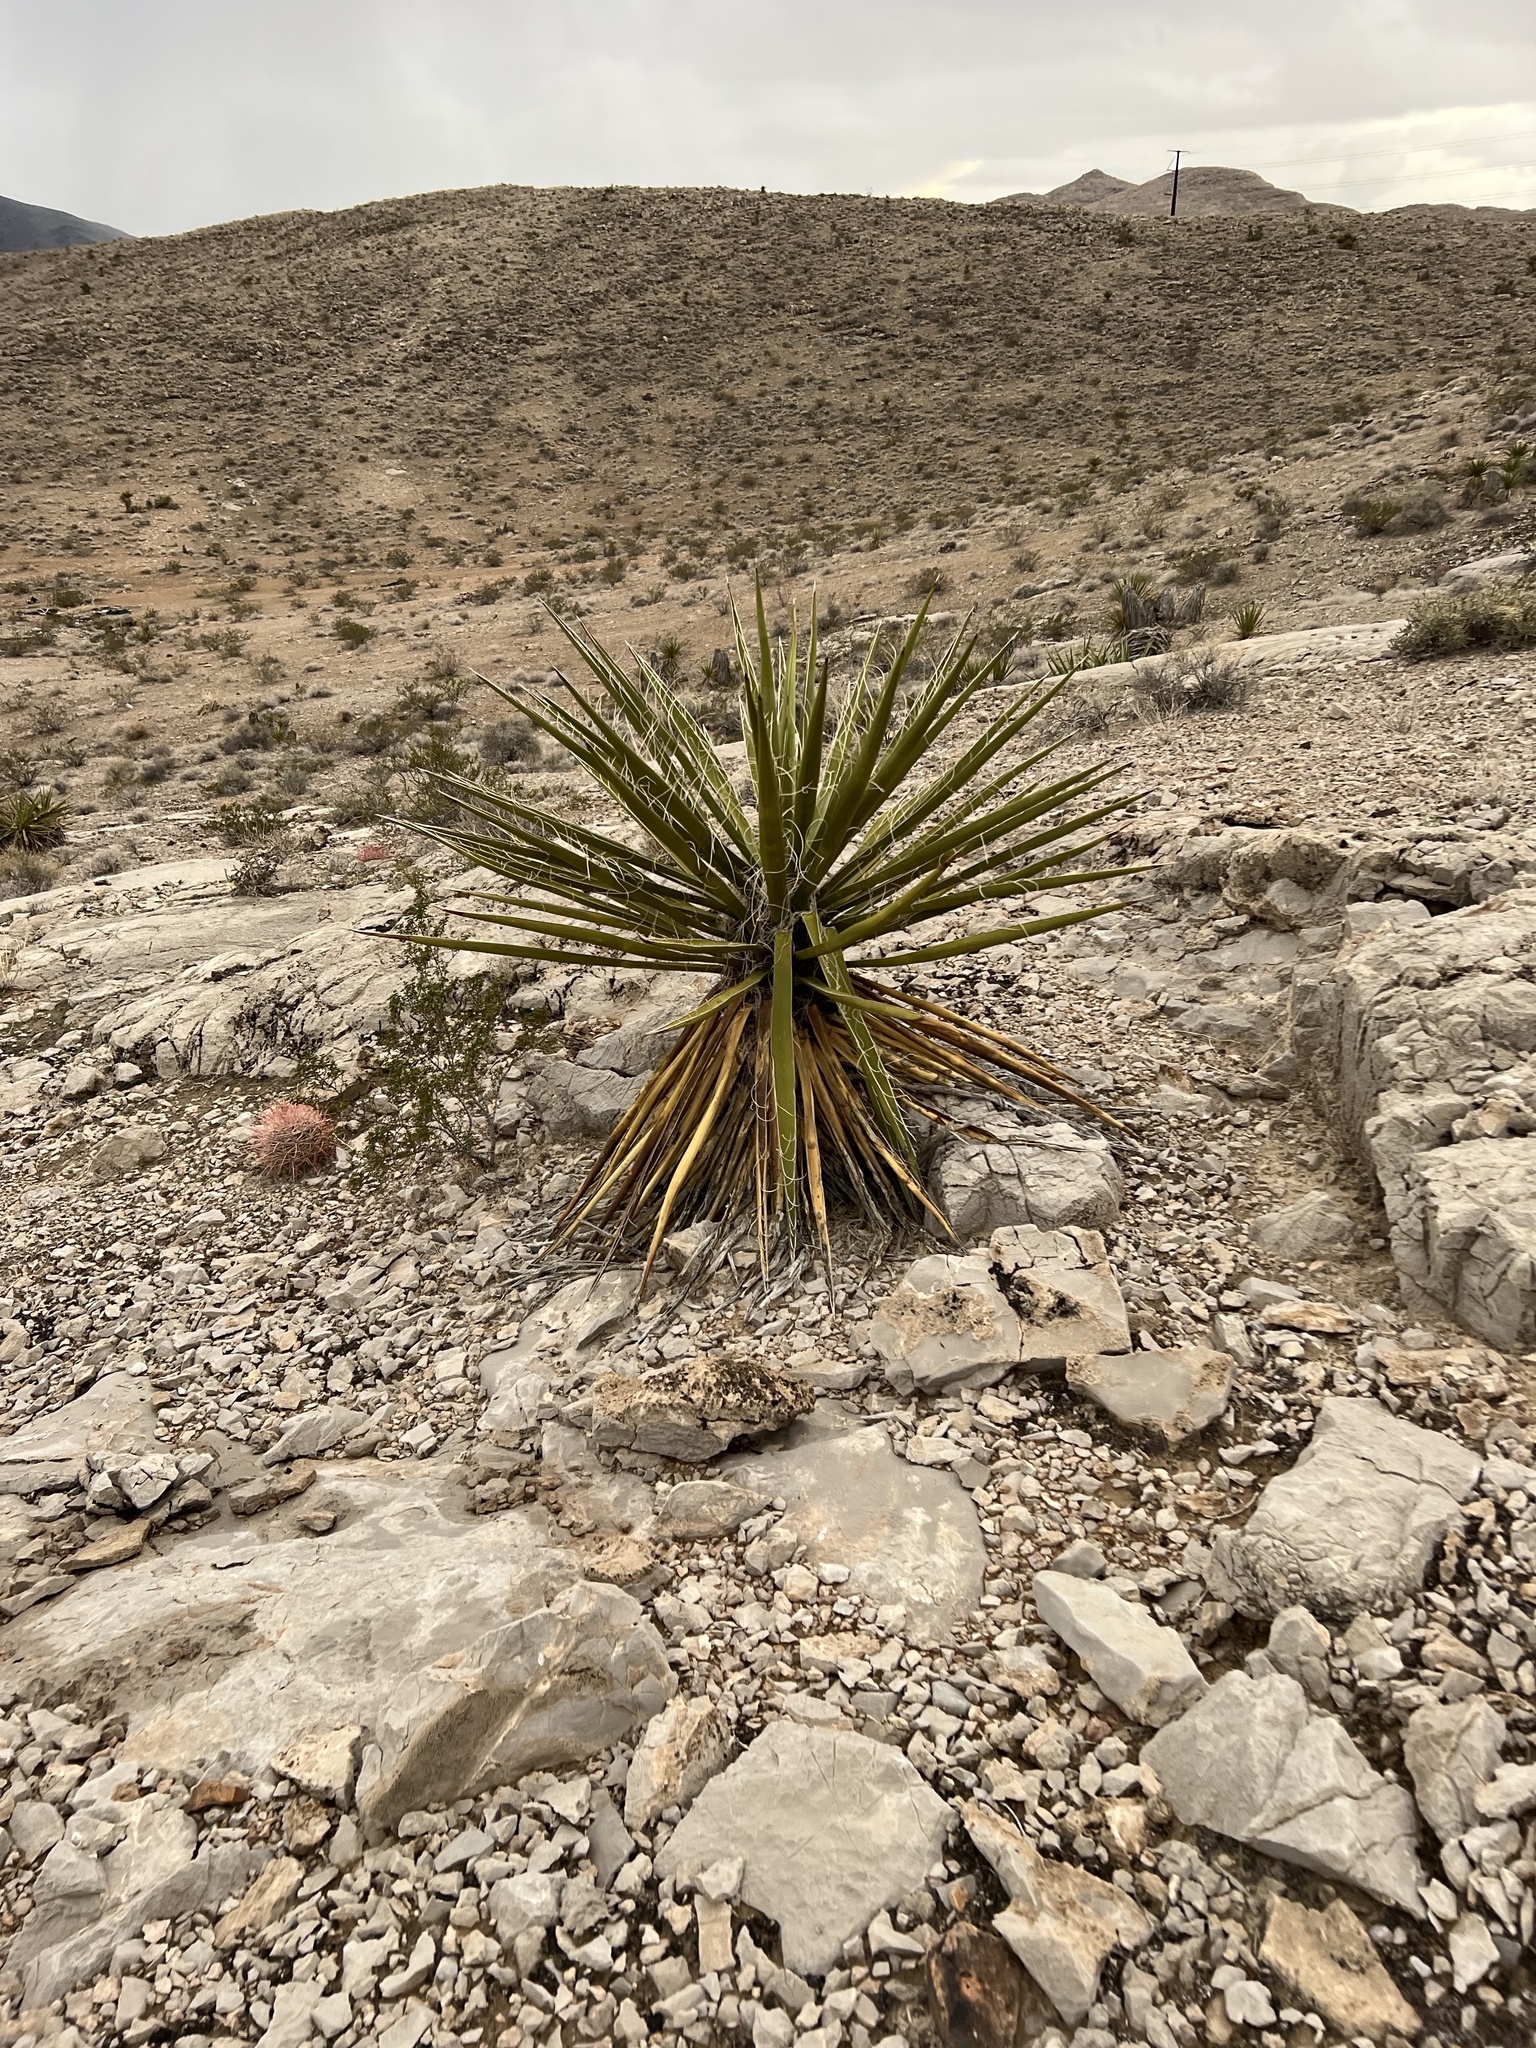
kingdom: Plantae
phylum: Tracheophyta
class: Liliopsida
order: Asparagales
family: Asparagaceae
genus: Yucca
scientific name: Yucca schidigera
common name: Mojave yucca
